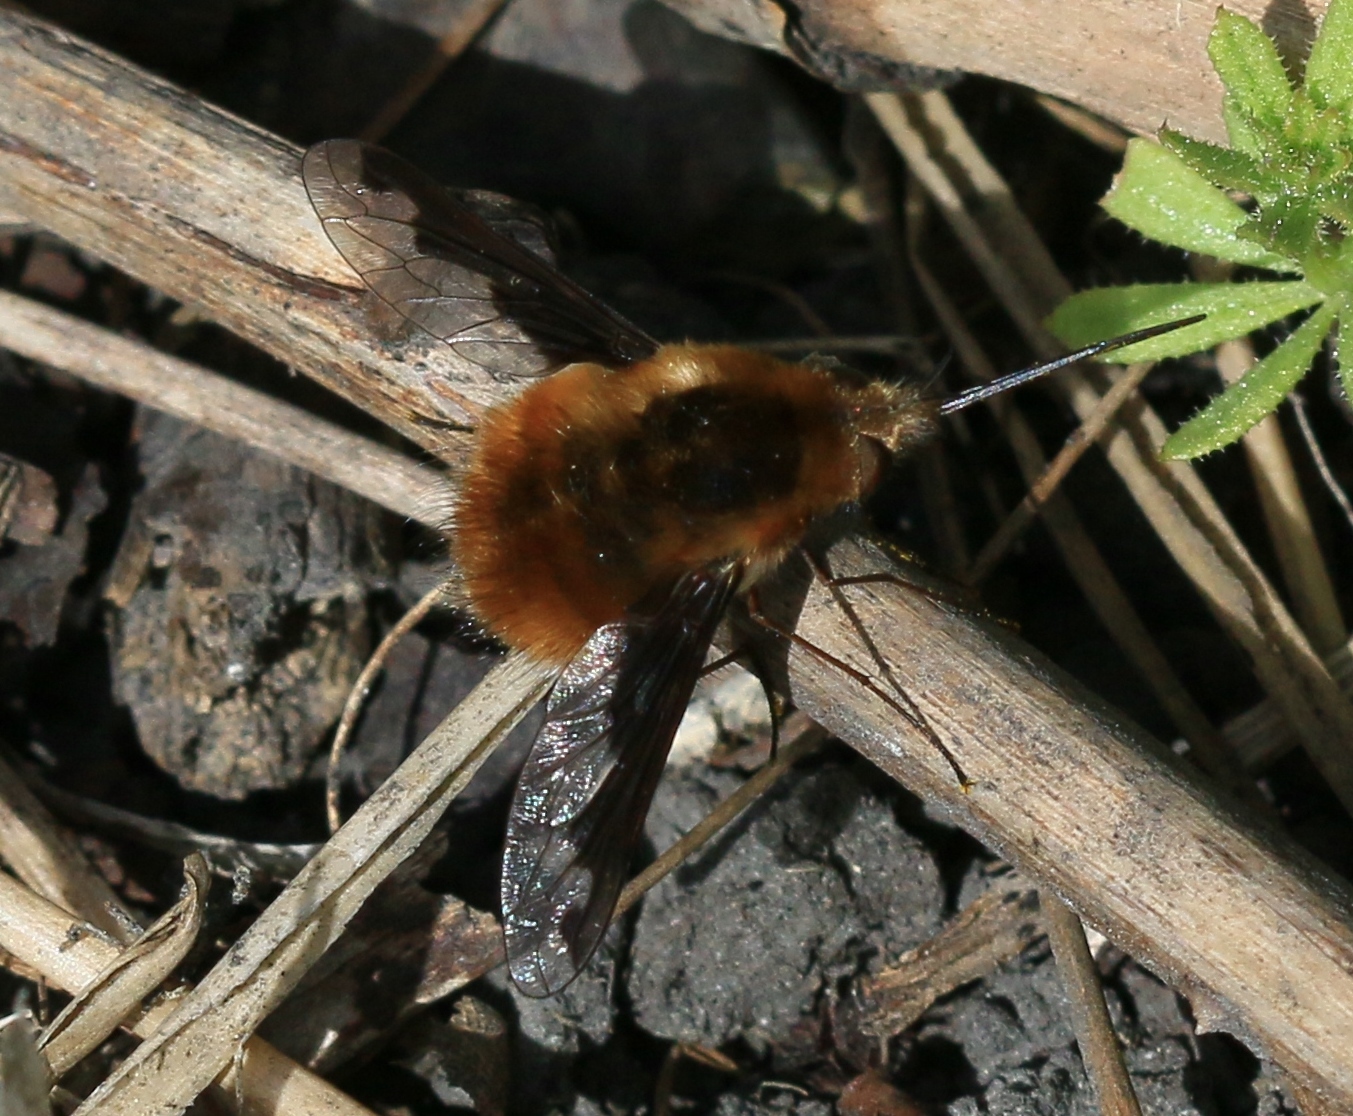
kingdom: Animalia
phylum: Arthropoda
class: Insecta
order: Diptera
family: Bombyliidae
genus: Bombylius
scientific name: Bombylius major
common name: Bee fly
